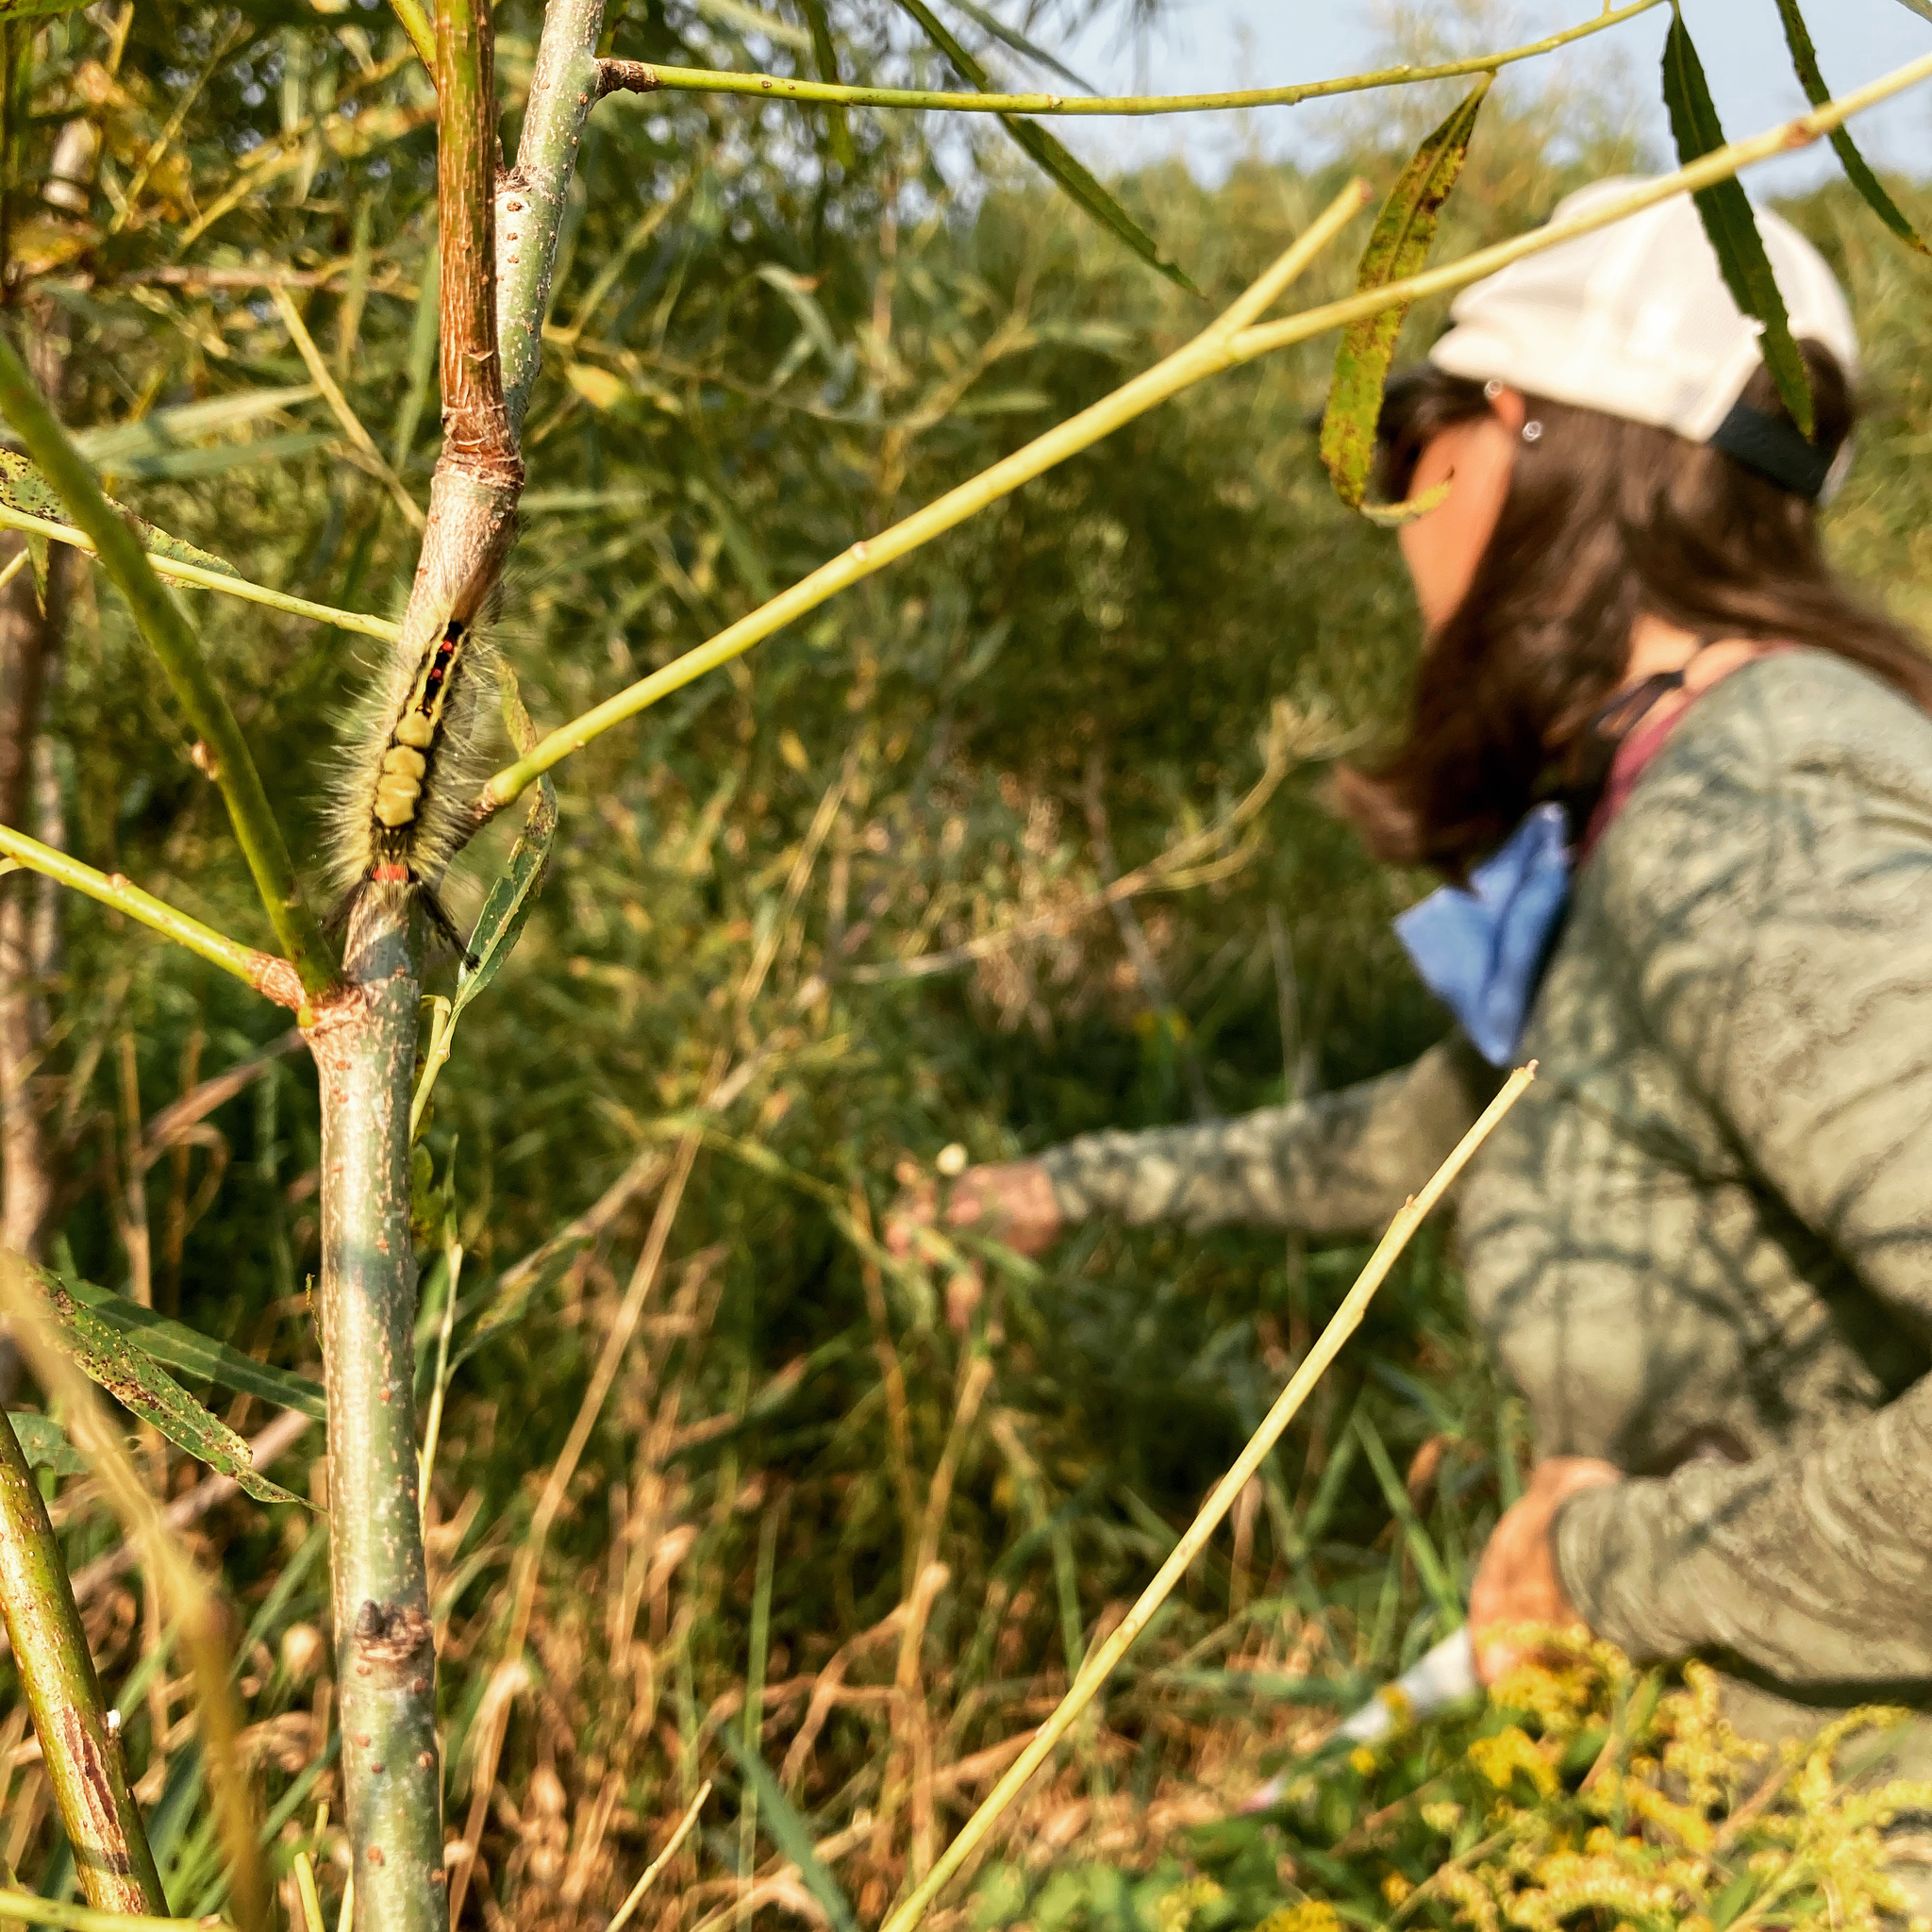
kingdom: Animalia
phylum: Arthropoda
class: Insecta
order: Lepidoptera
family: Erebidae
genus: Orgyia
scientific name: Orgyia leucostigma
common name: White-marked tussock moth
